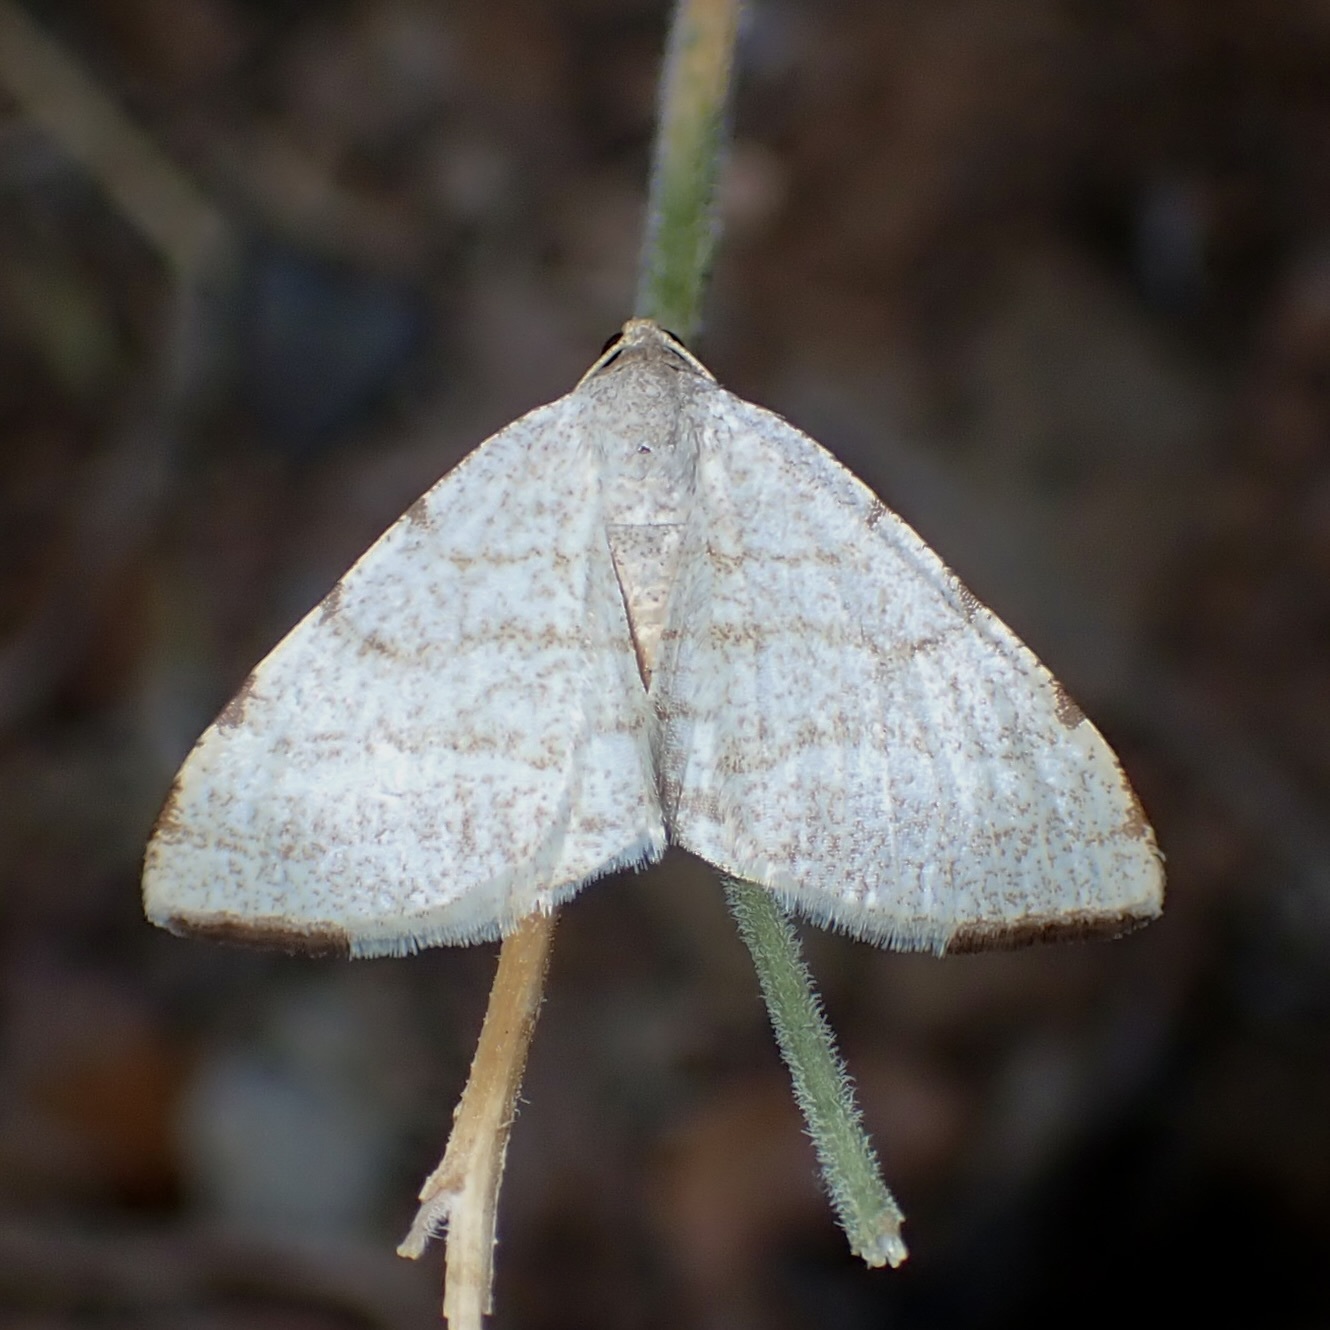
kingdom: Animalia
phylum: Arthropoda
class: Insecta
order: Lepidoptera
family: Geometridae
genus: Macaria
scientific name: Macaria octolineata
